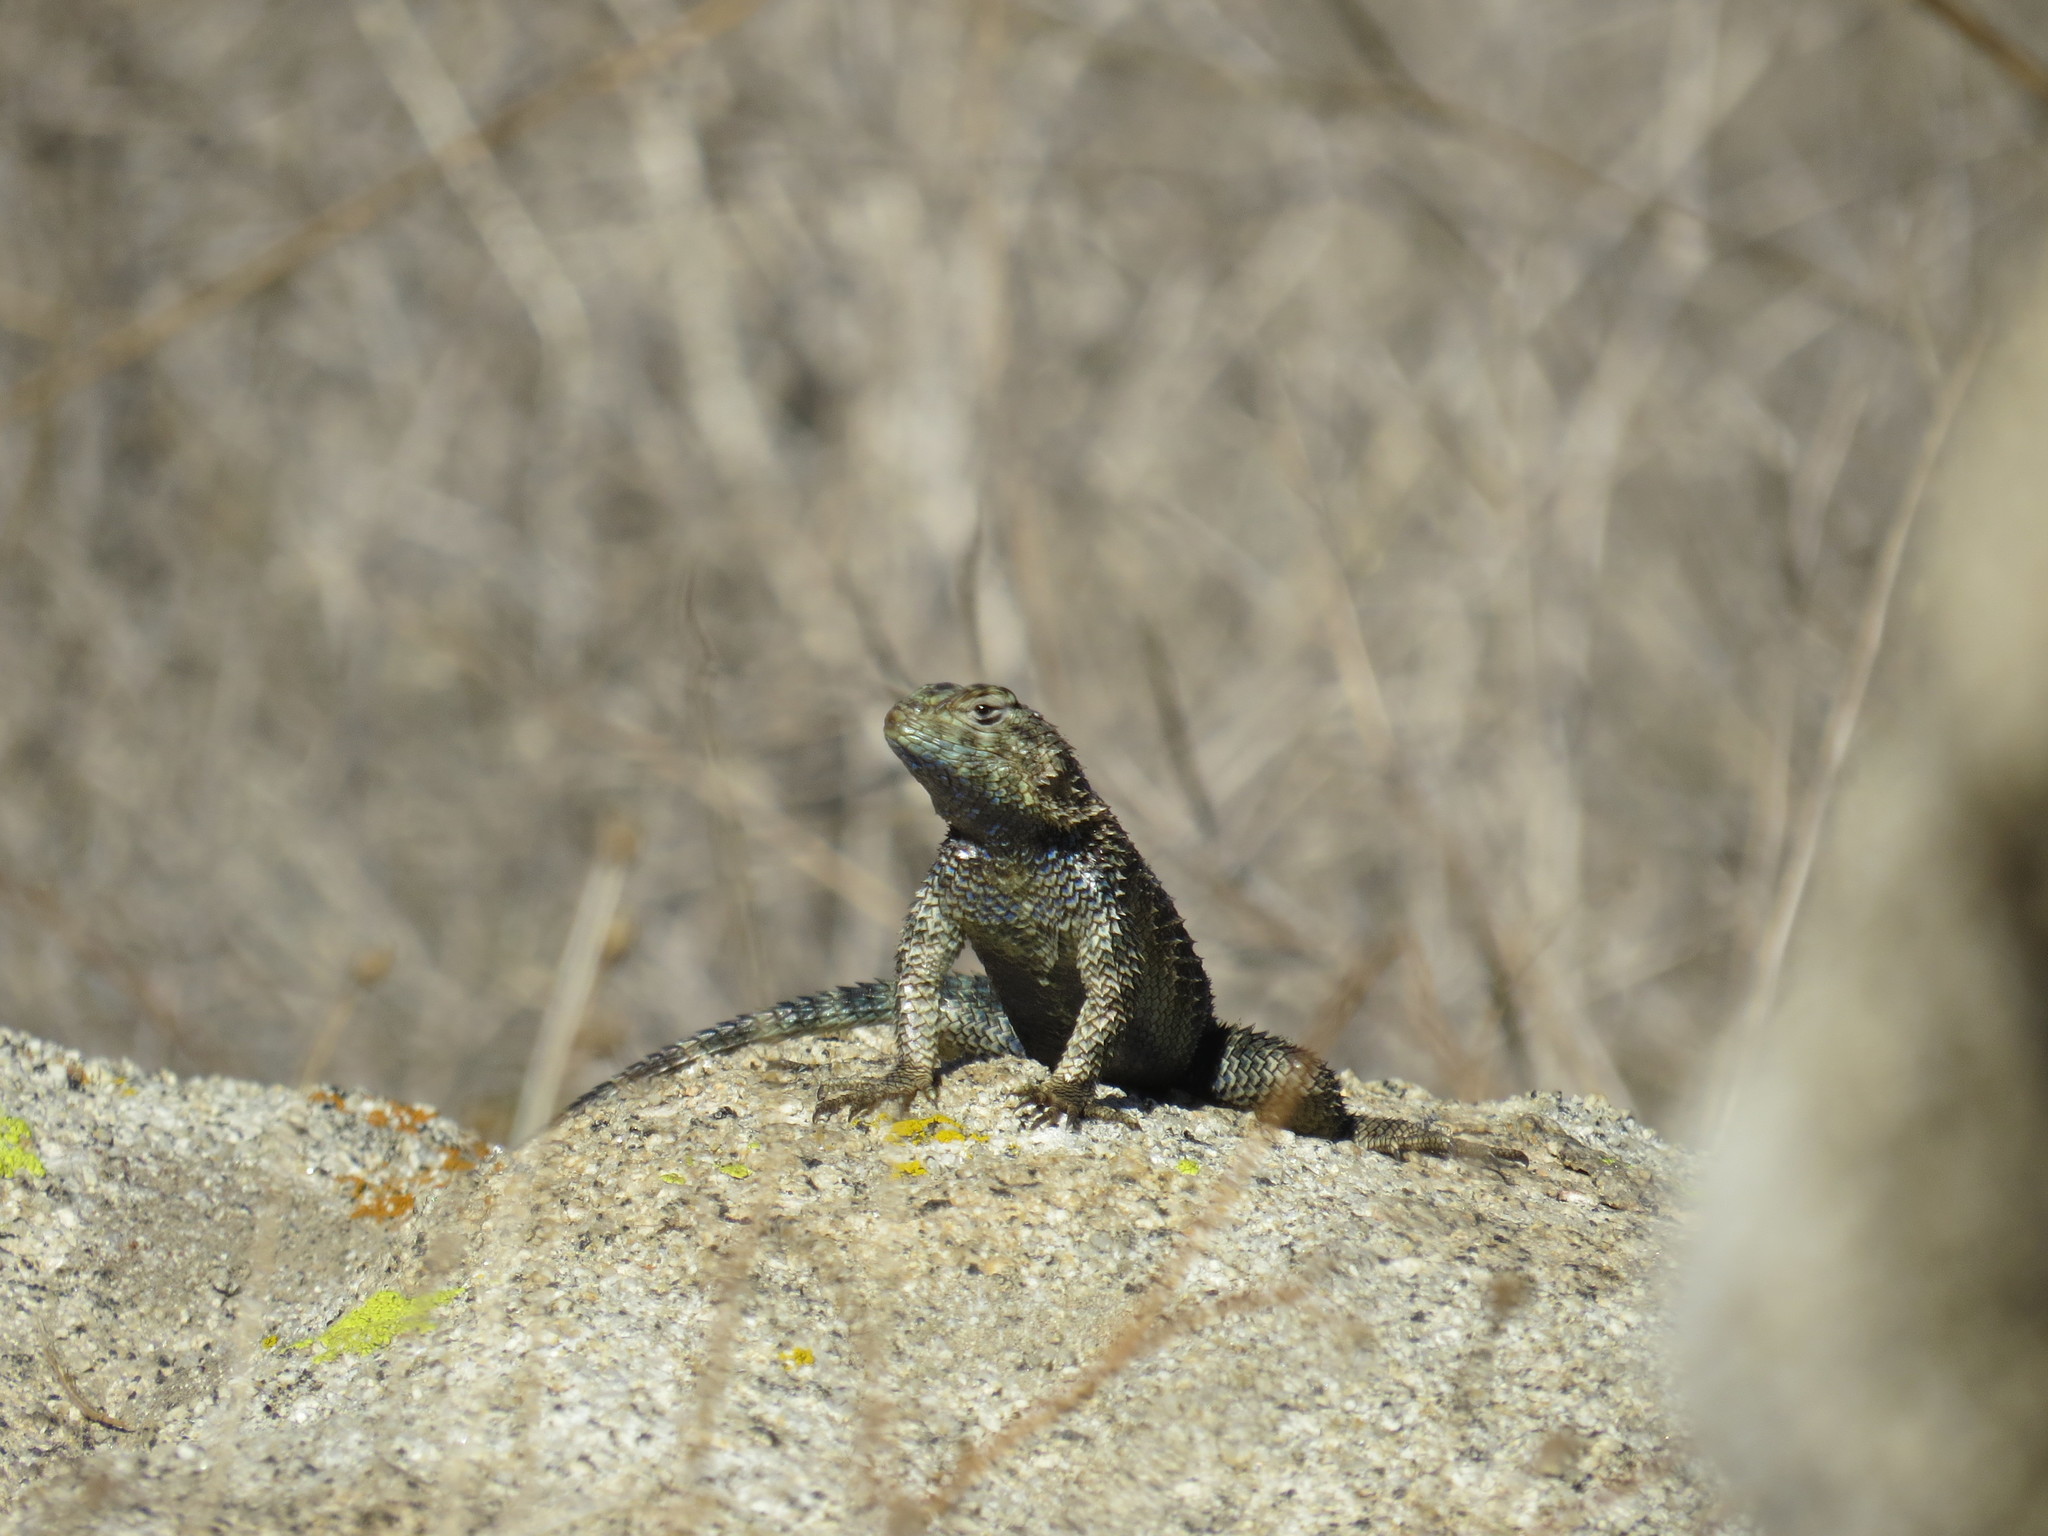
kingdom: Animalia
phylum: Chordata
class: Squamata
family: Phrynosomatidae
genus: Sceloporus
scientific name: Sceloporus orcutti
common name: Granite spiny lizard
